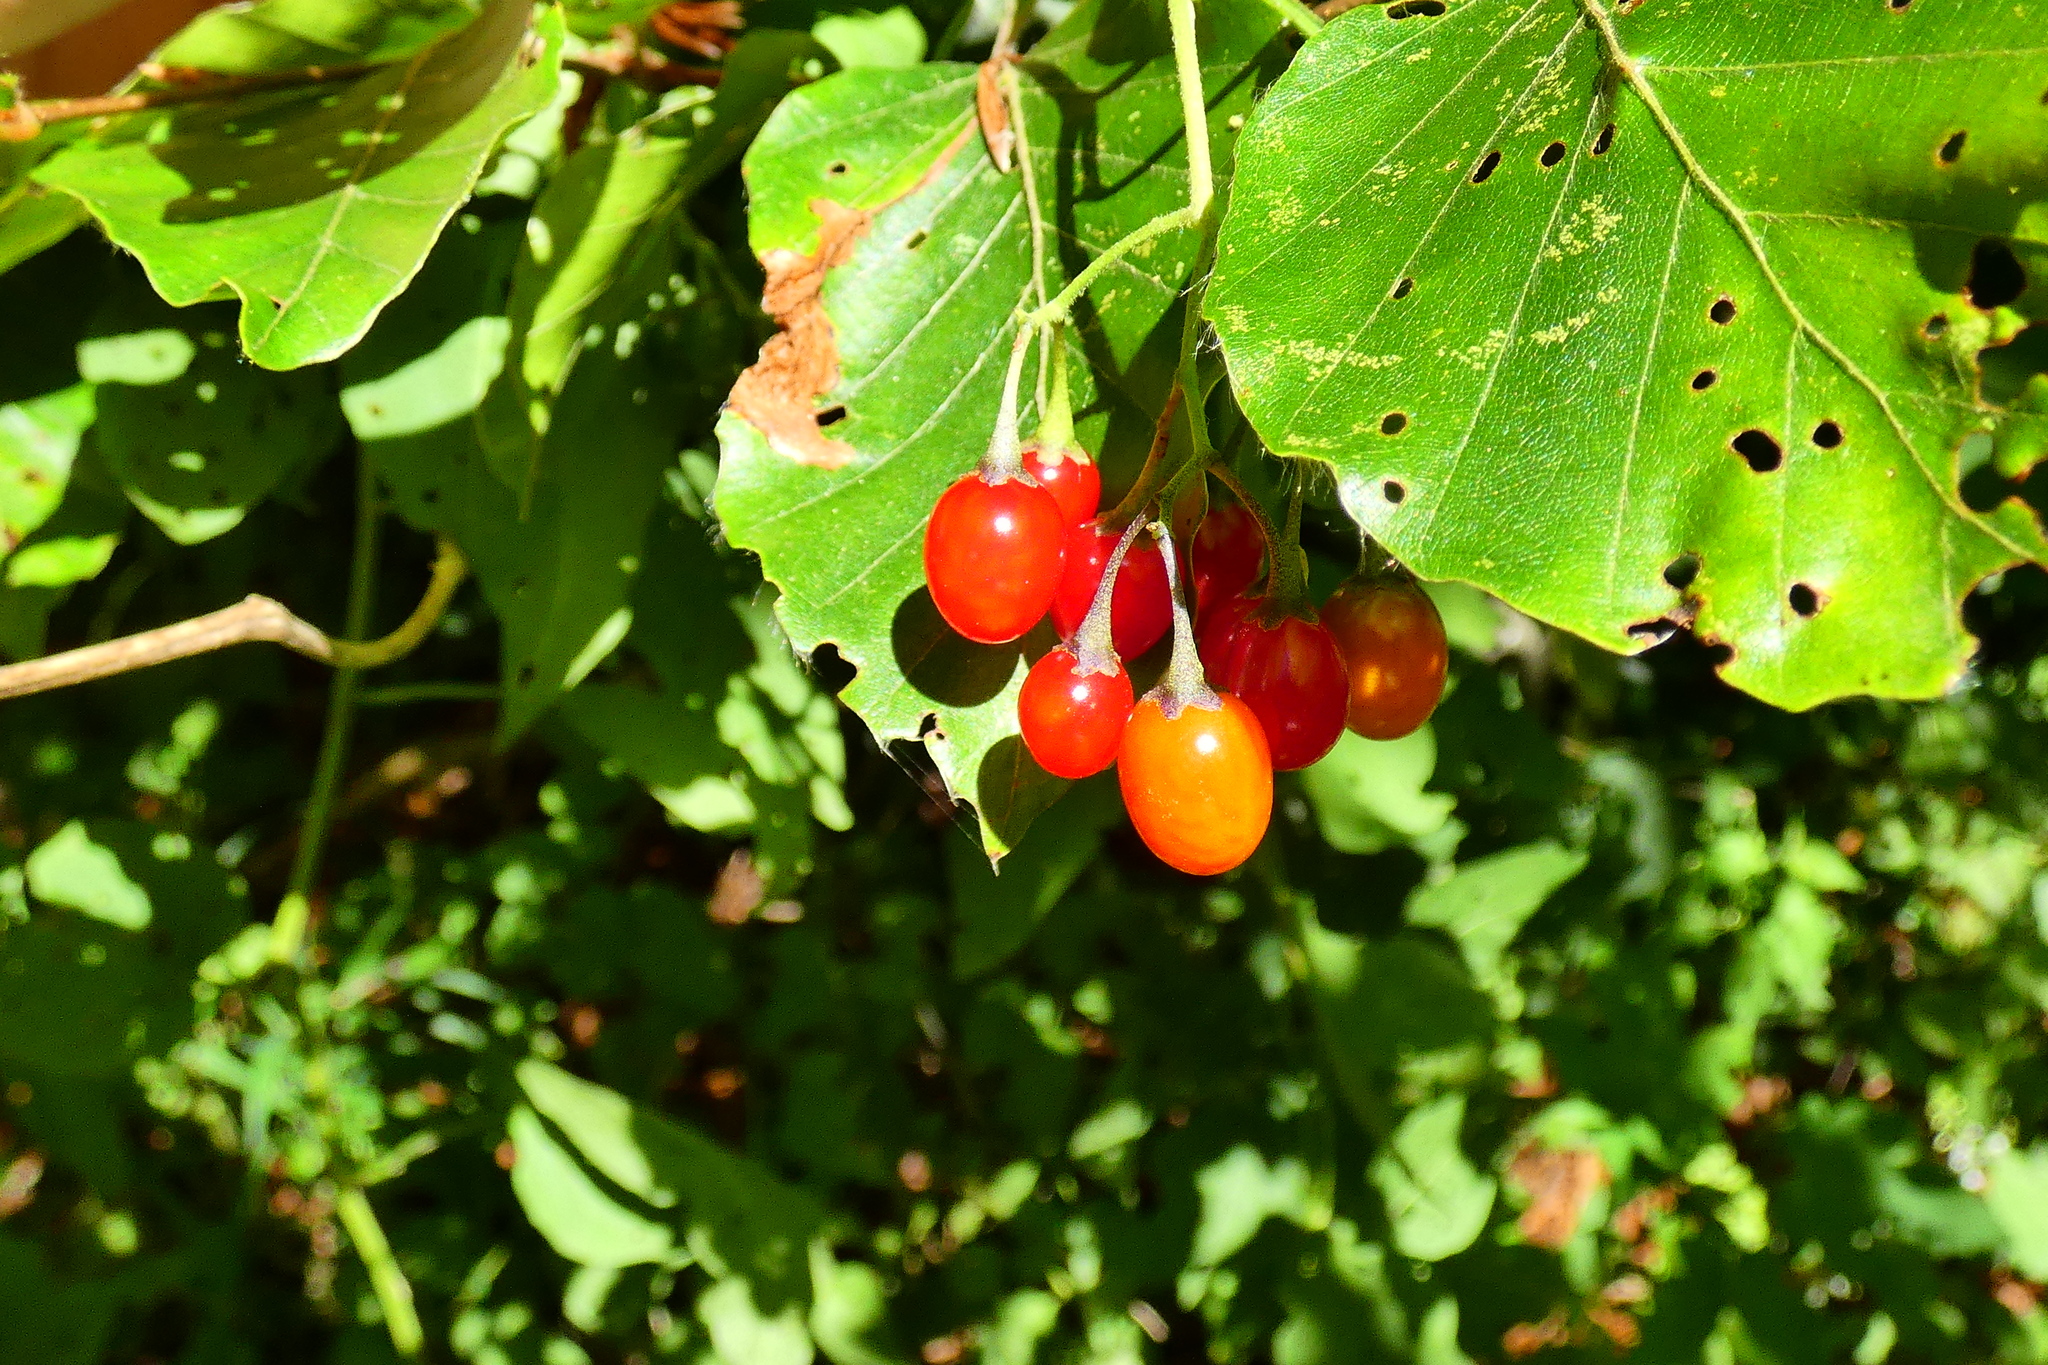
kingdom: Plantae
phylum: Tracheophyta
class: Magnoliopsida
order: Solanales
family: Solanaceae
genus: Solanum
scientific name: Solanum dulcamara
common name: Climbing nightshade
